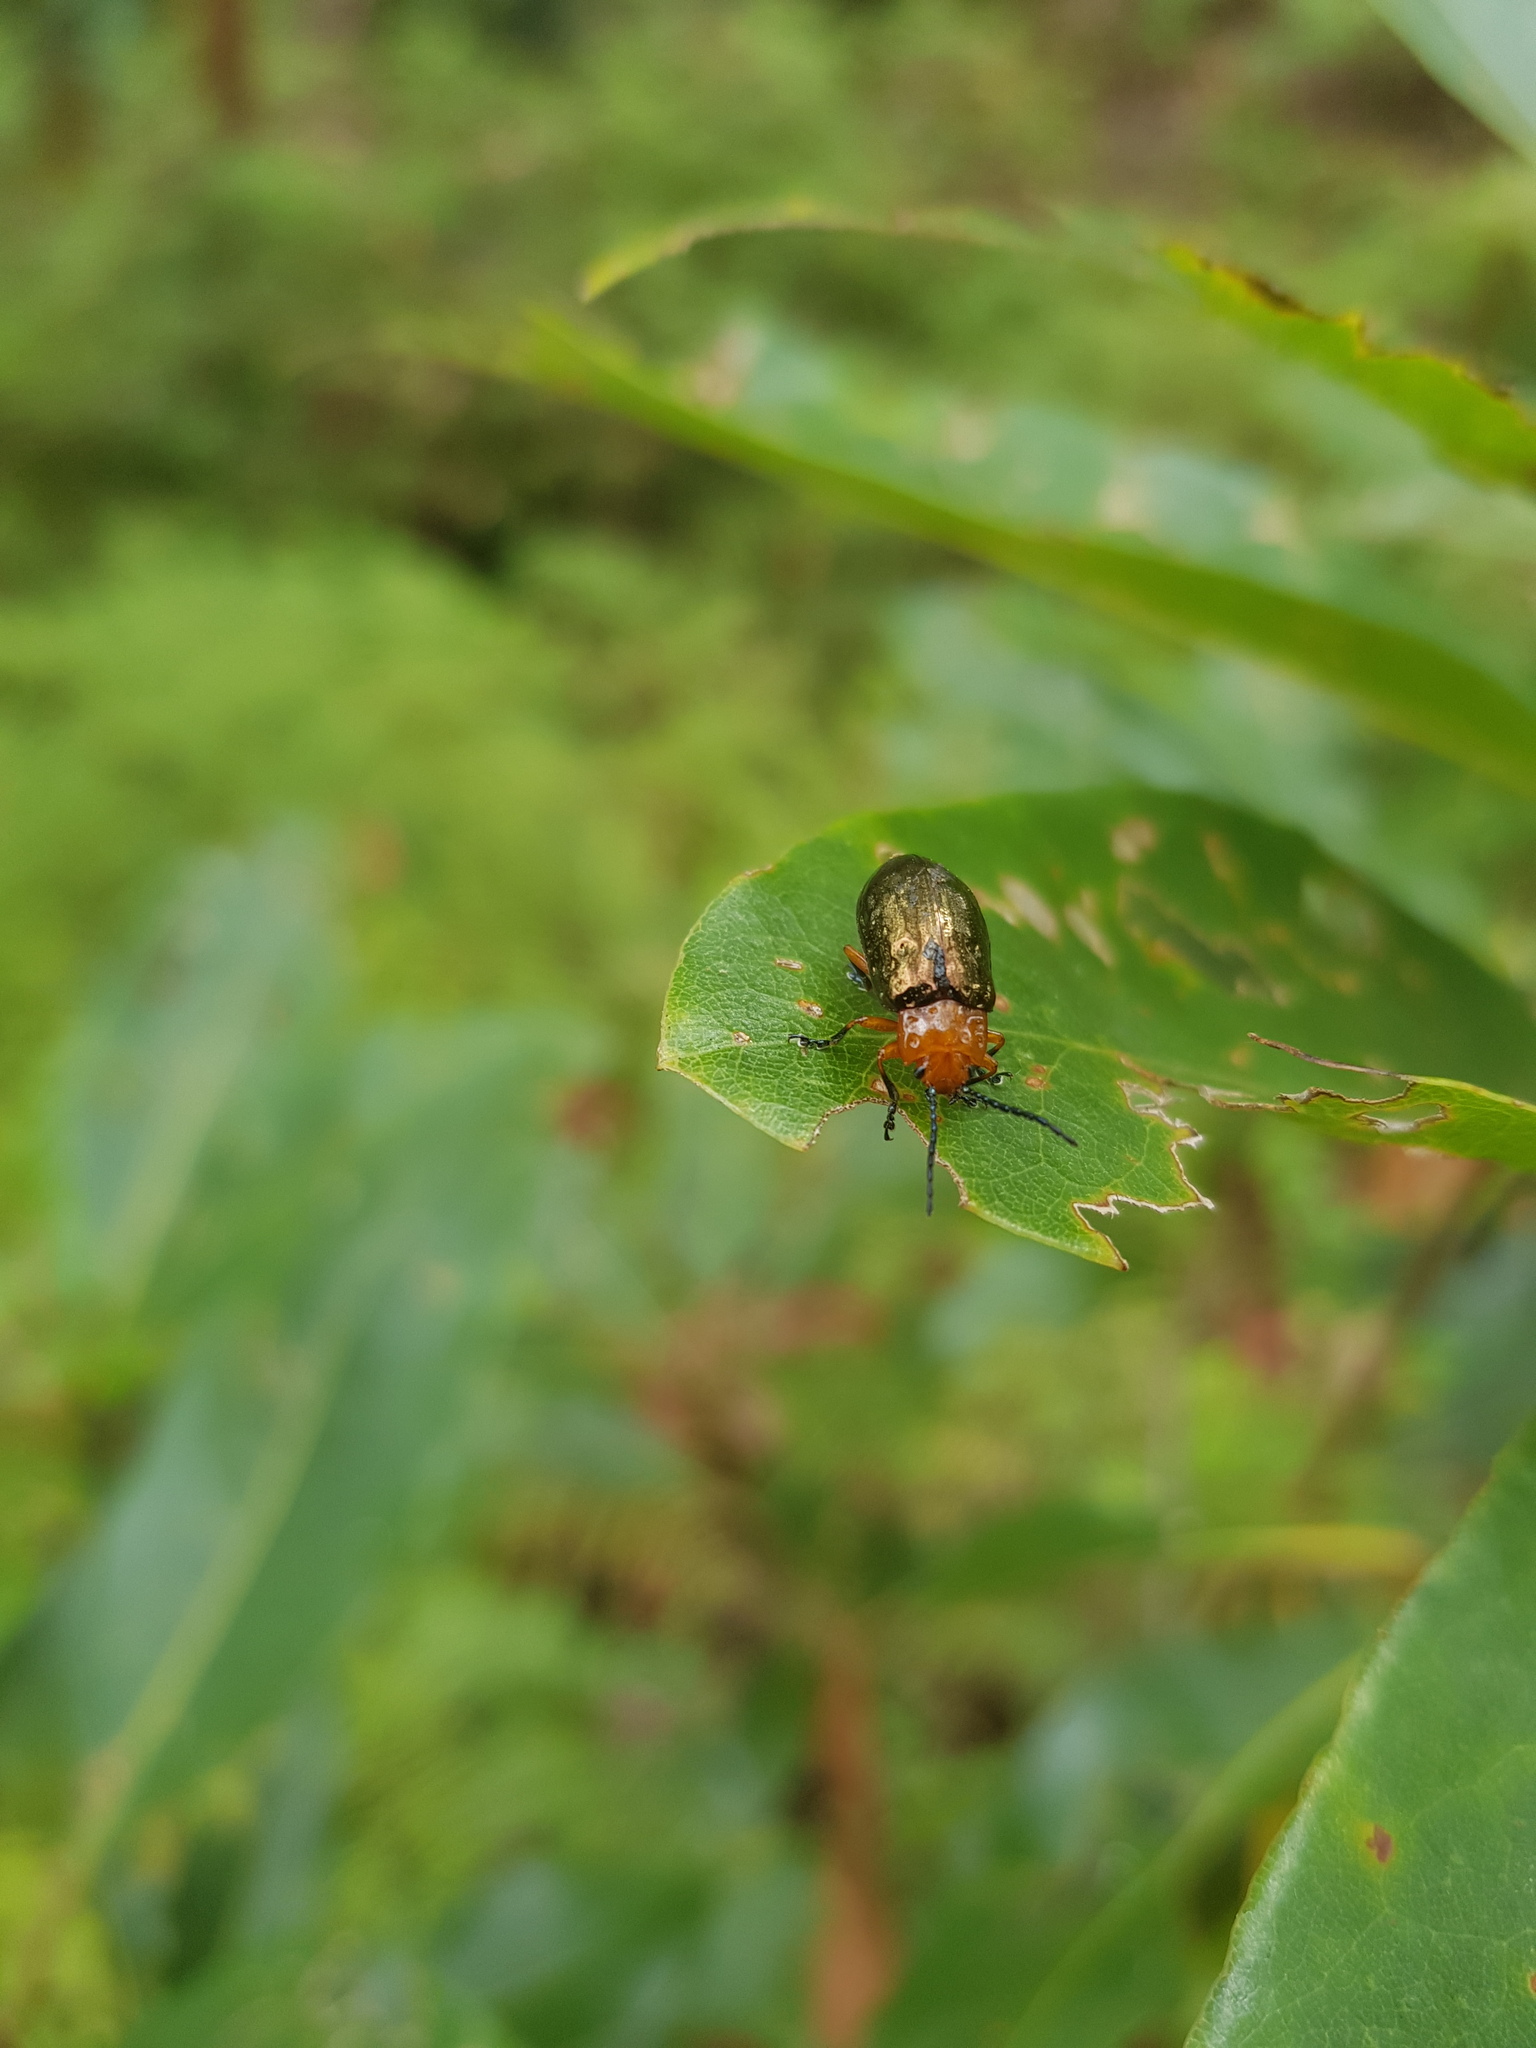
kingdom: Animalia
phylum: Arthropoda
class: Insecta
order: Coleoptera
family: Chrysomelidae
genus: Lamprolina
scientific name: Lamprolina
